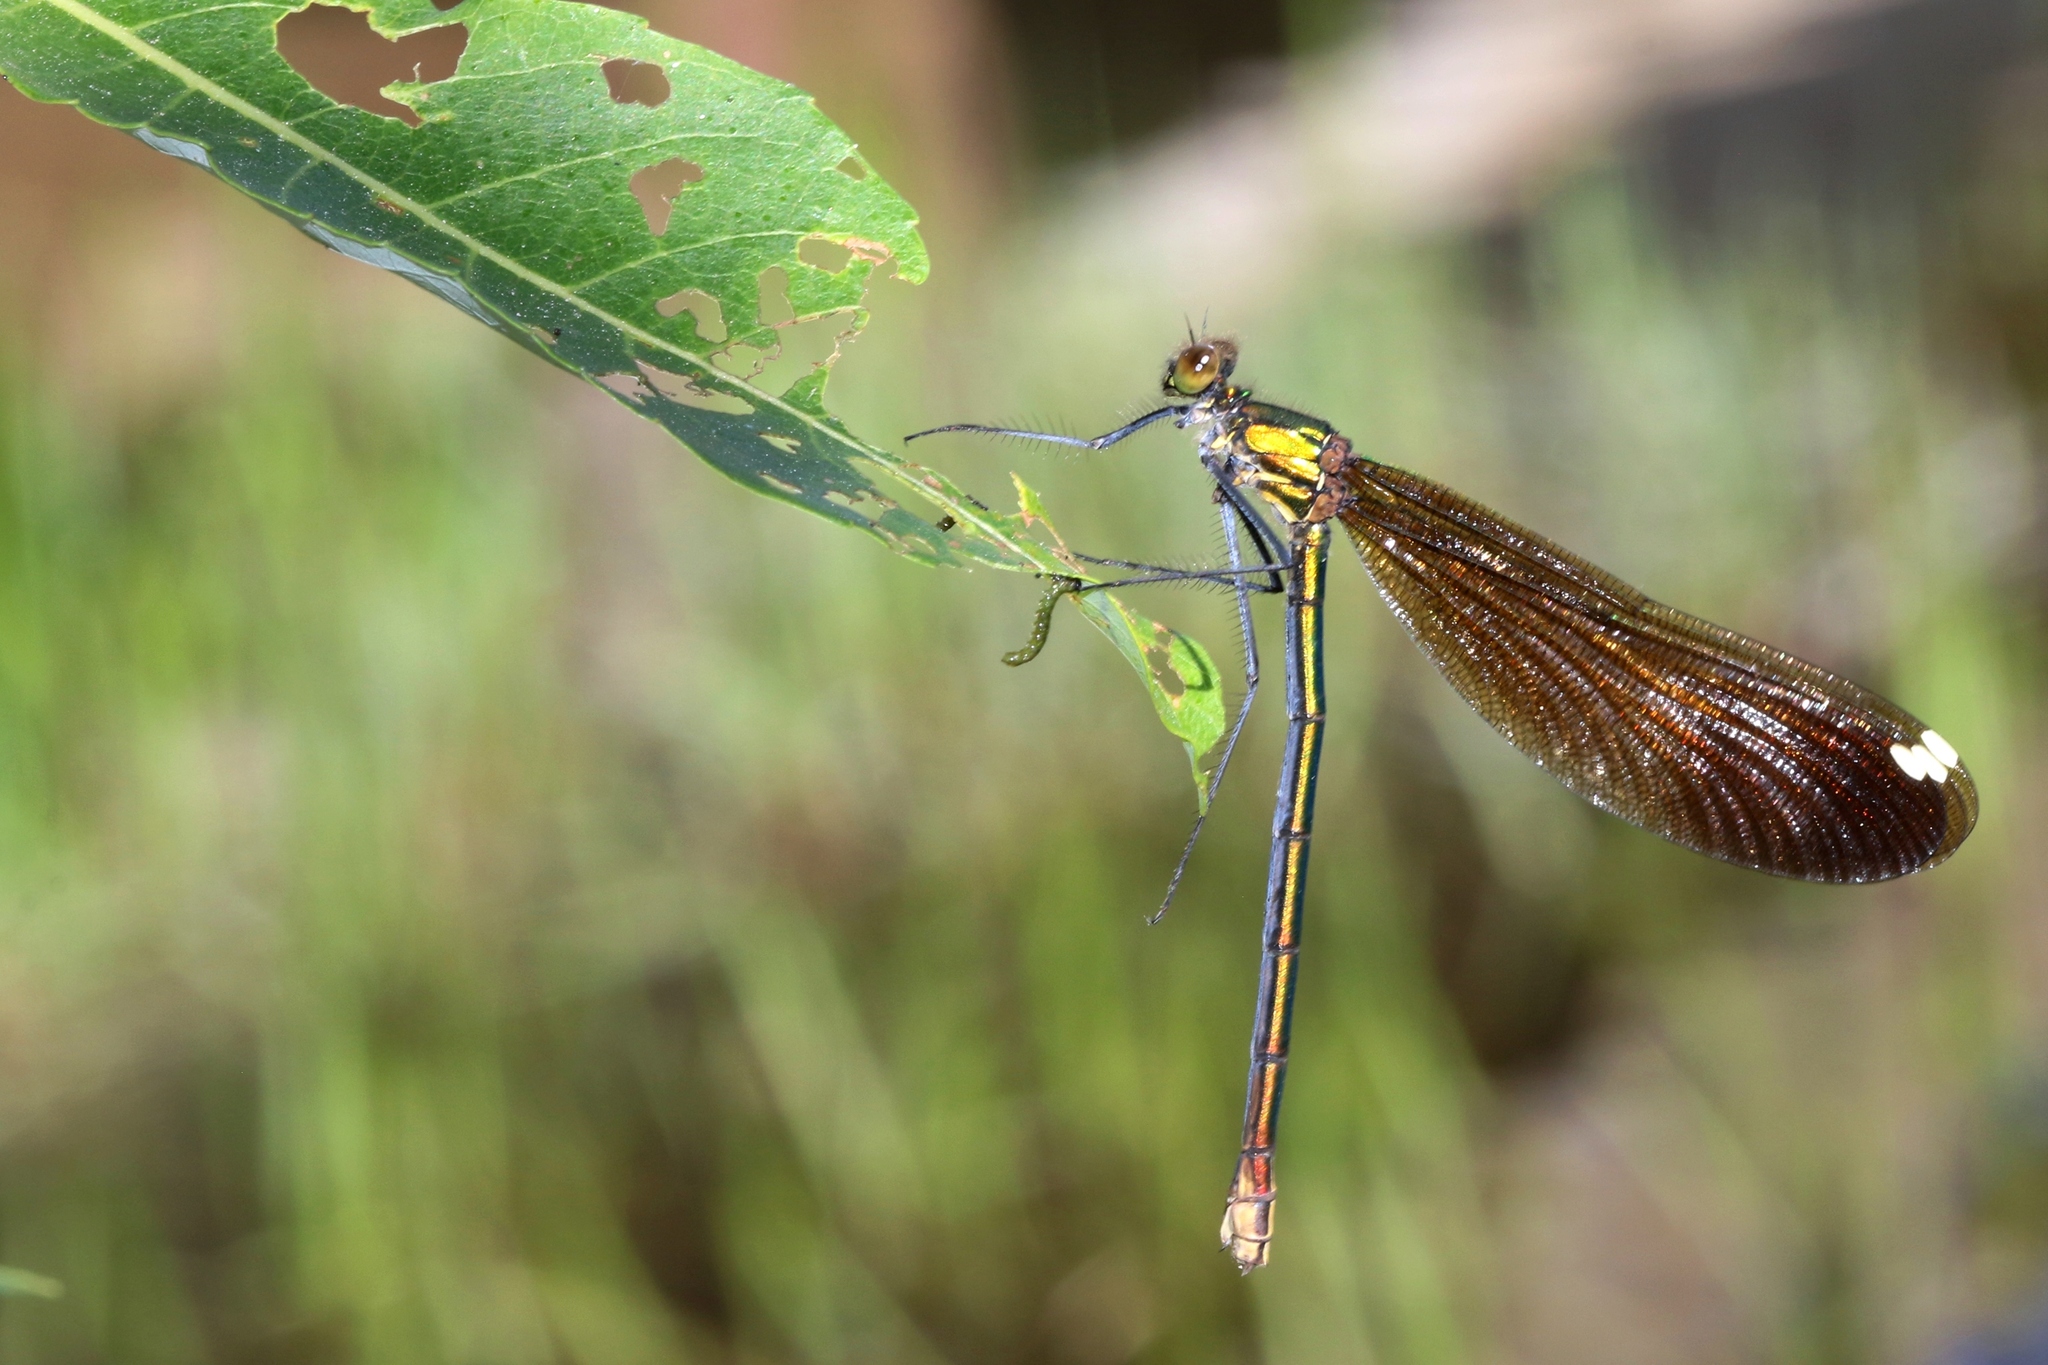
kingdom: Animalia
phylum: Arthropoda
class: Insecta
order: Odonata
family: Calopterygidae
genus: Calopteryx
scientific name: Calopteryx aequabilis
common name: River jewelwing
